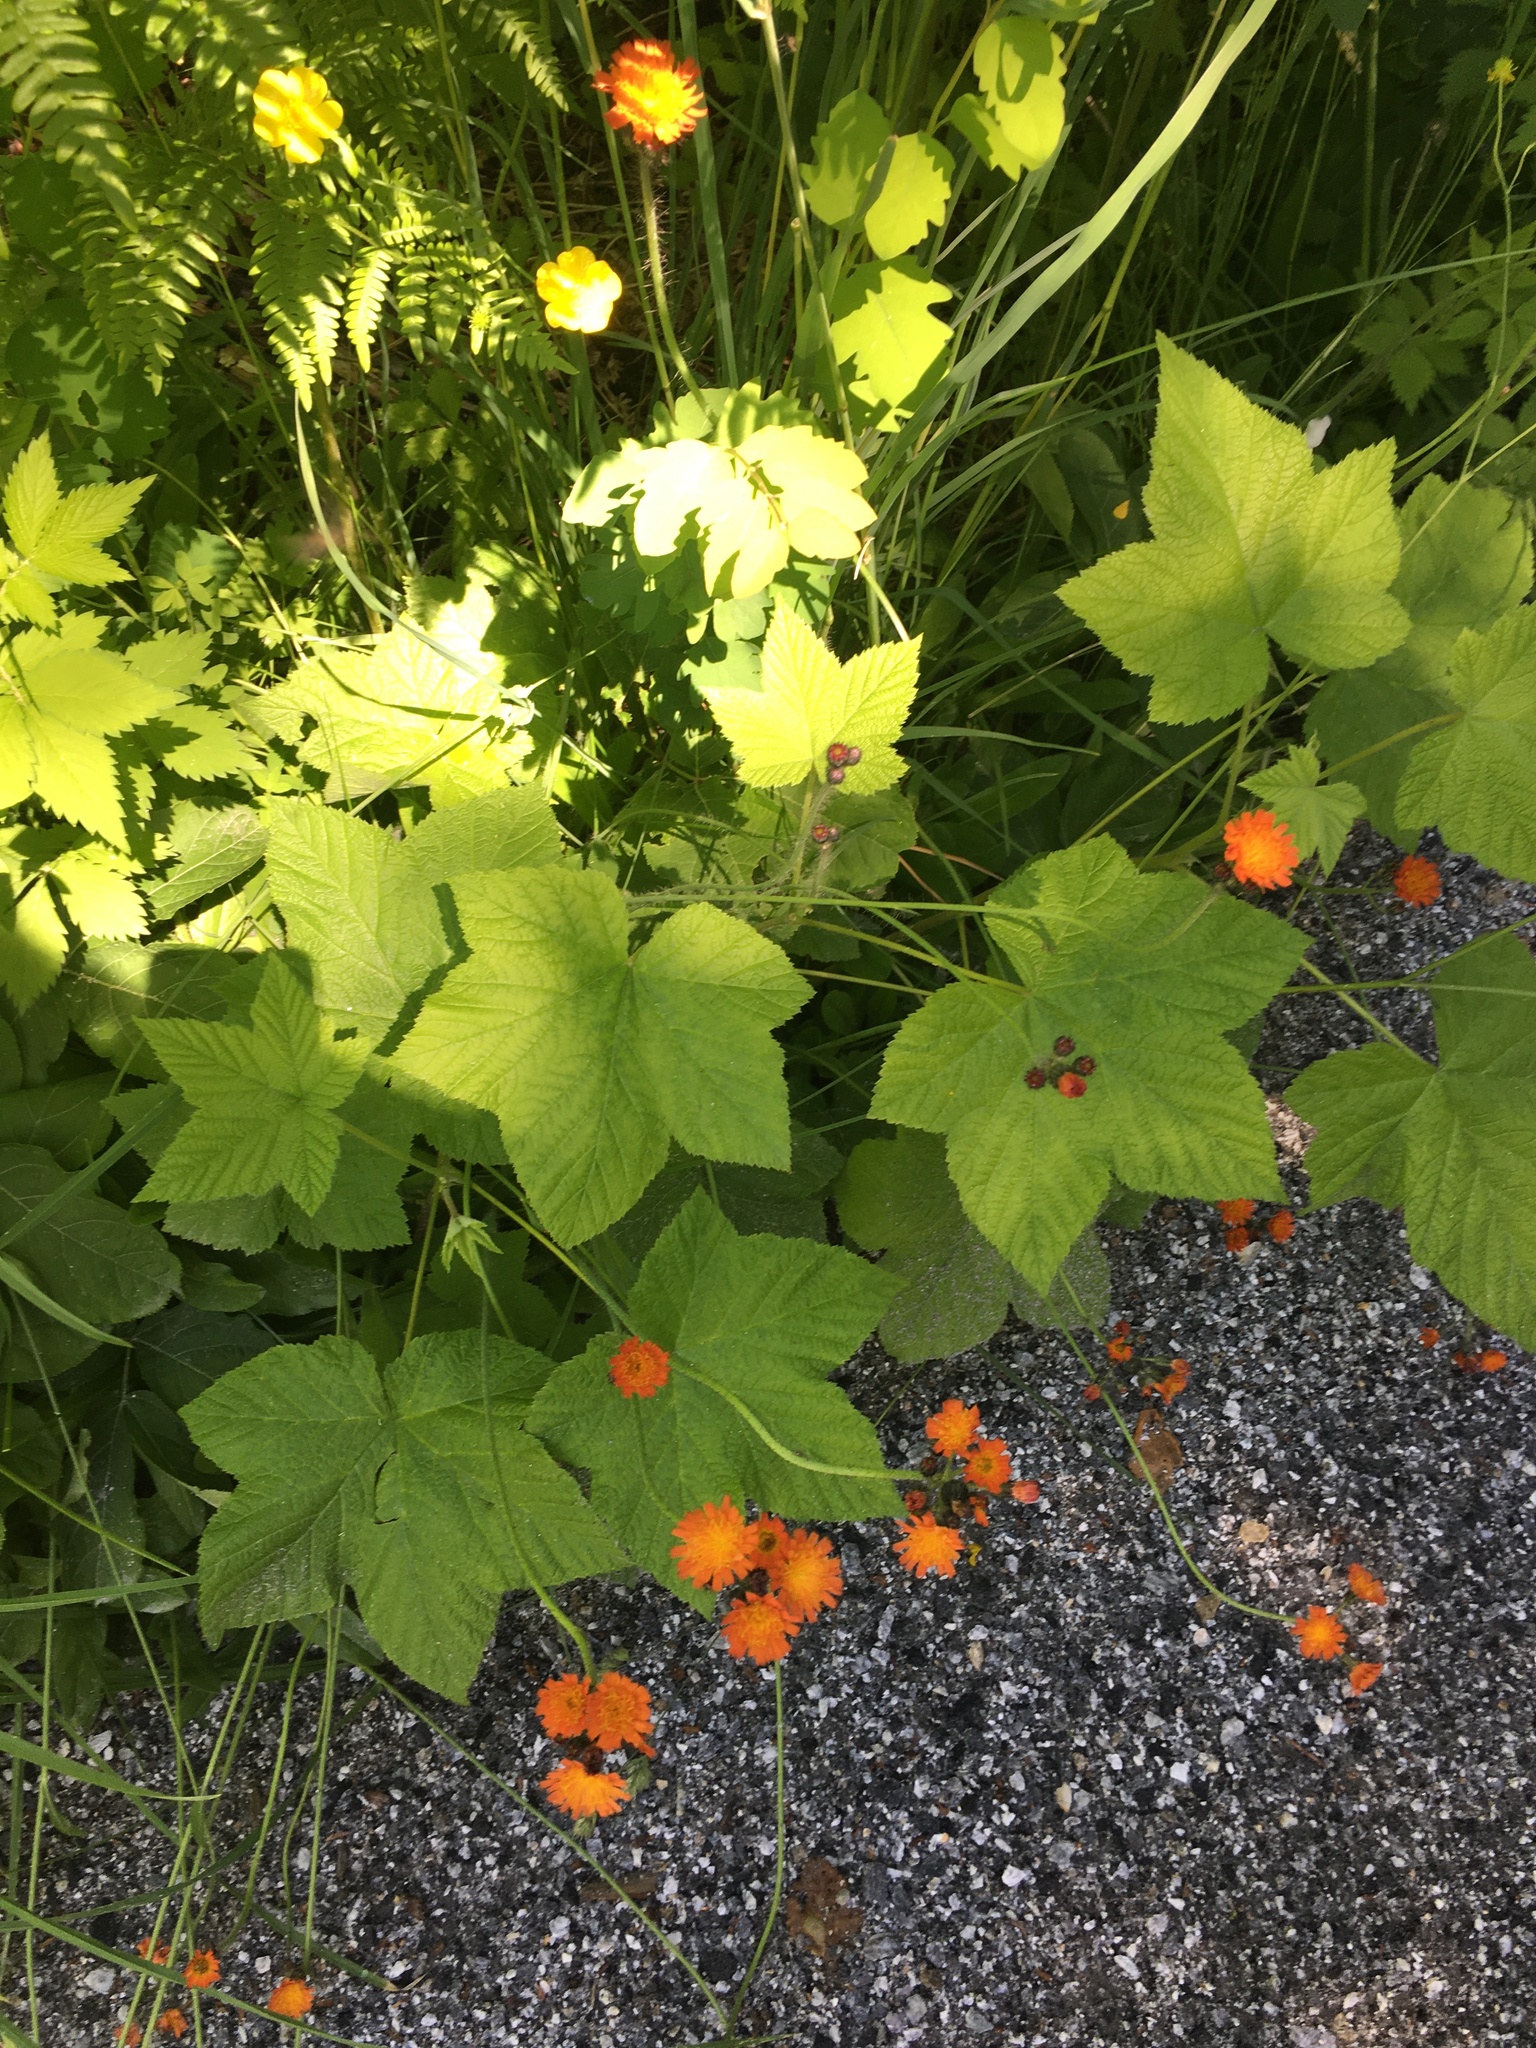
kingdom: Plantae
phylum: Tracheophyta
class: Magnoliopsida
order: Rosales
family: Rosaceae
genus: Rubus
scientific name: Rubus parviflorus
